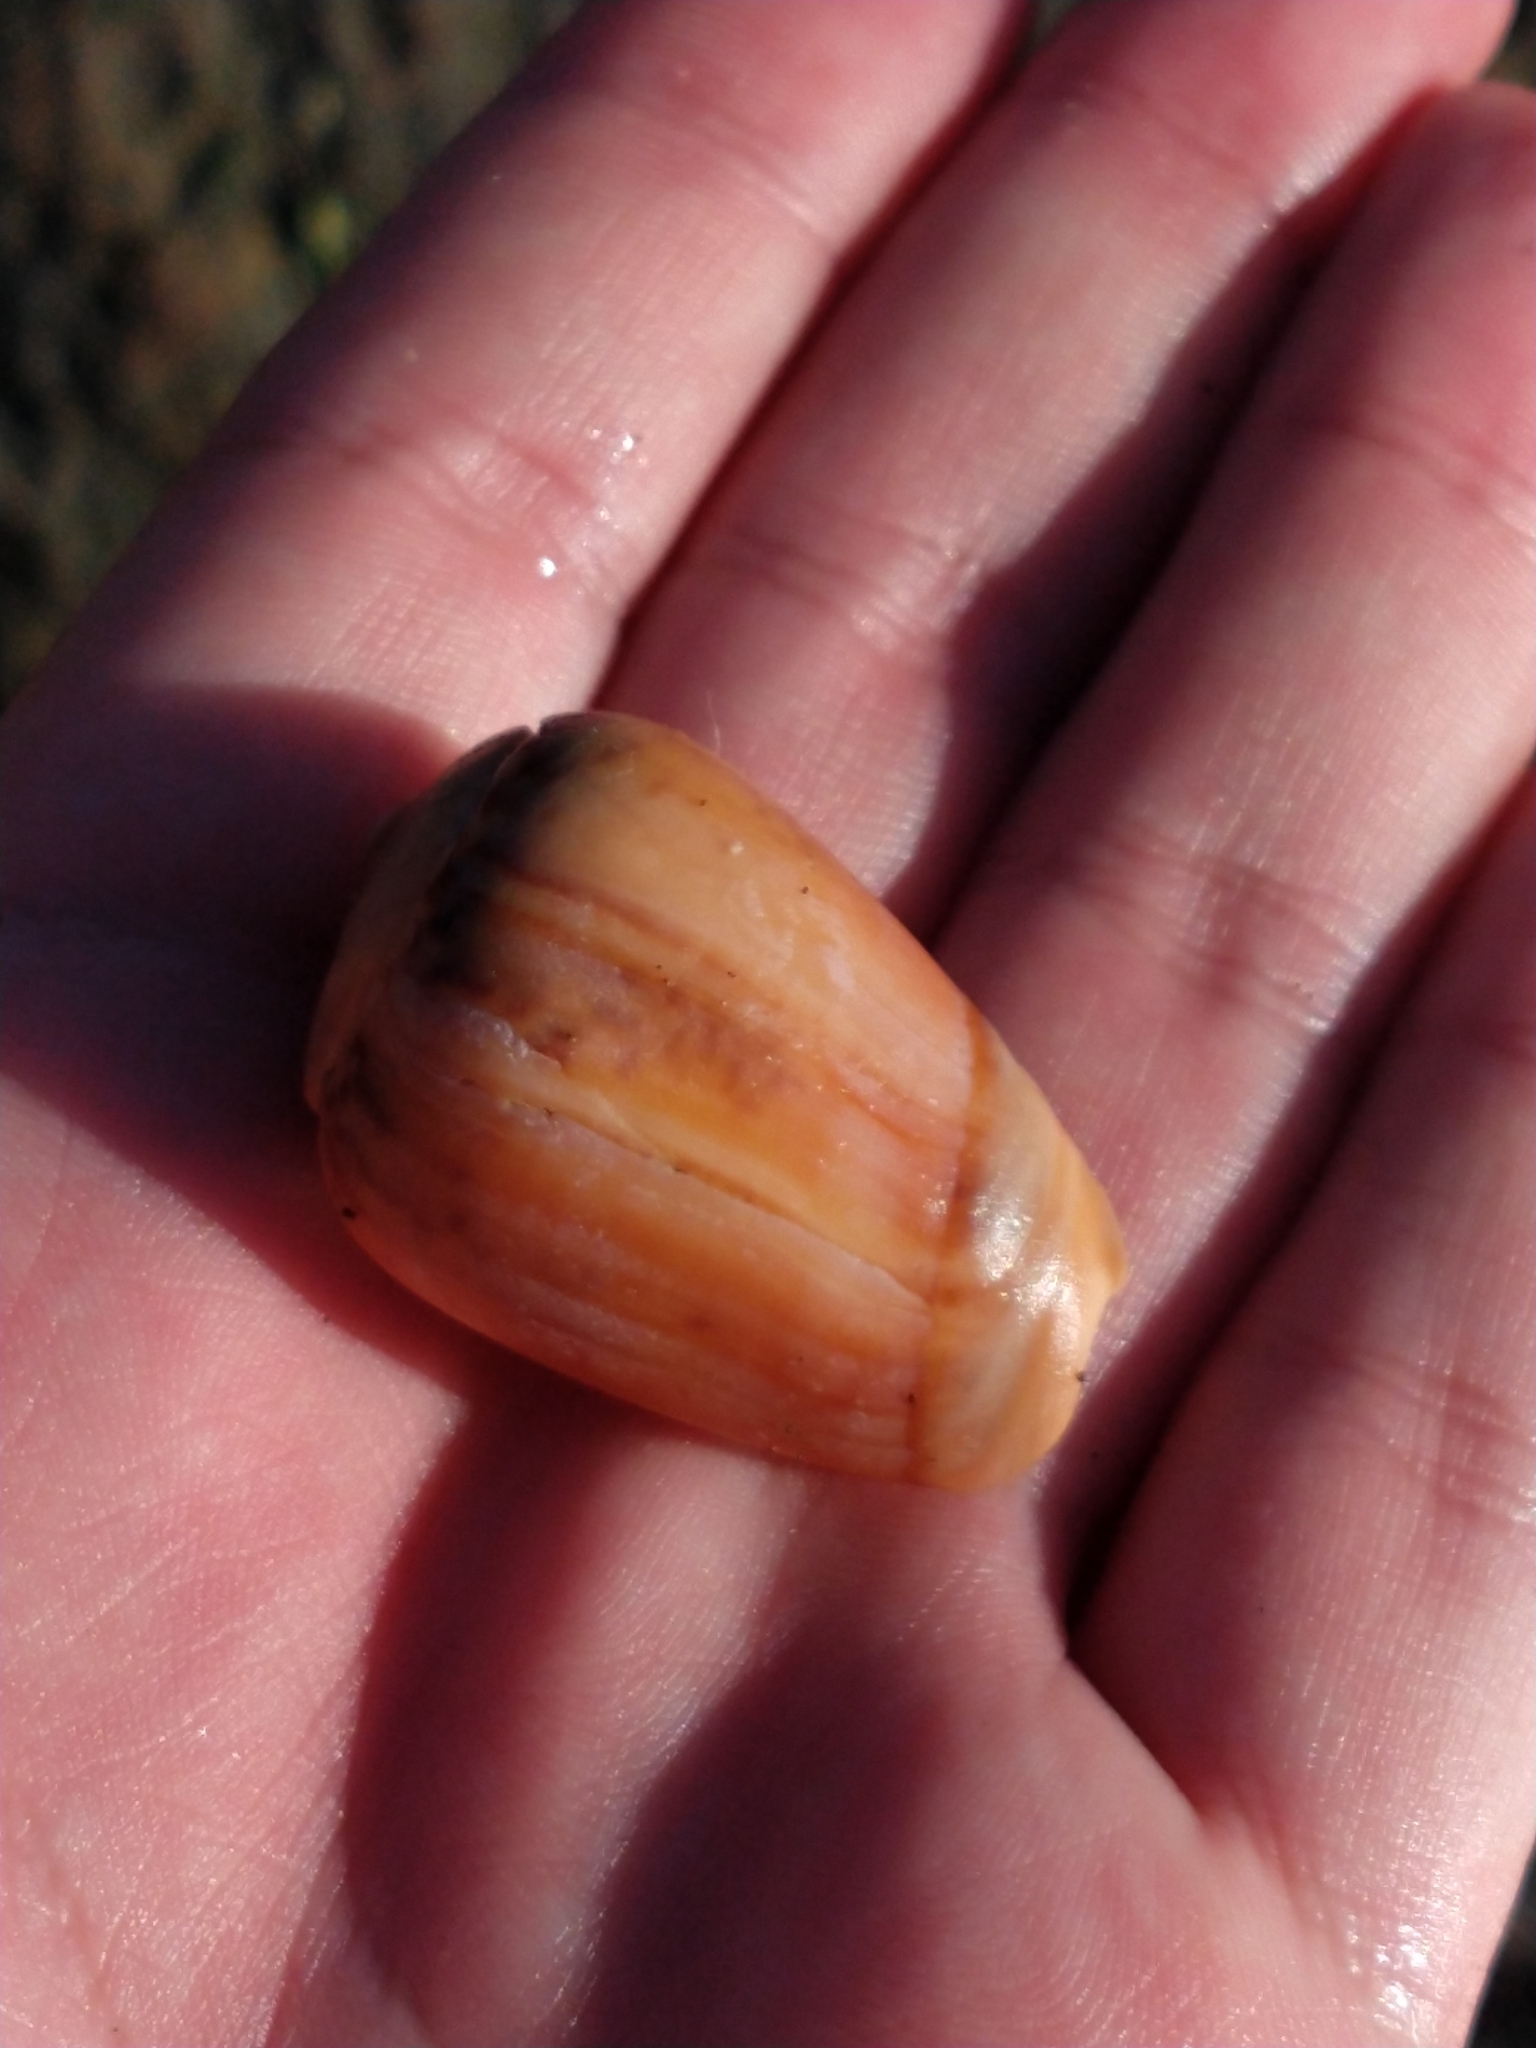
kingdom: Animalia
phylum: Mollusca
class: Gastropoda
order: Neogastropoda
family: Olividae
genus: Olivancillaria
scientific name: Olivancillaria urceus
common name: Bear ancilla
